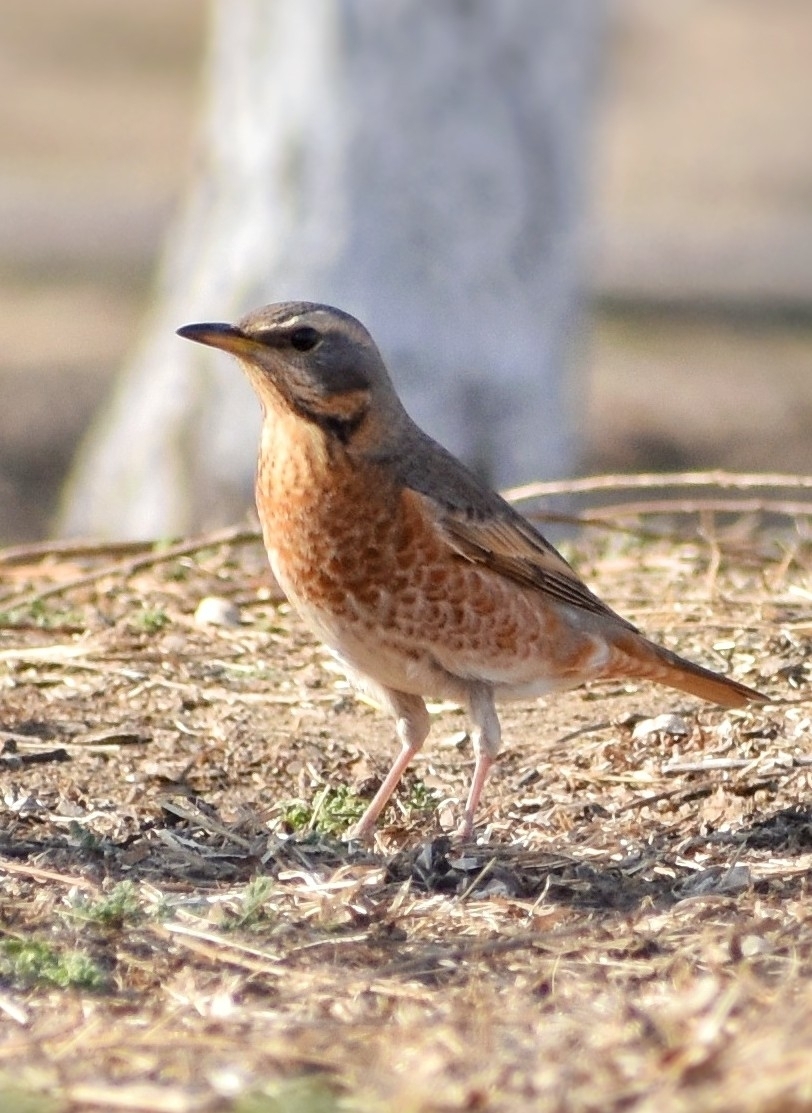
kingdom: Animalia
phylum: Chordata
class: Aves
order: Passeriformes
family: Turdidae
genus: Turdus
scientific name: Turdus naumanni
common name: Naumann's thrush
